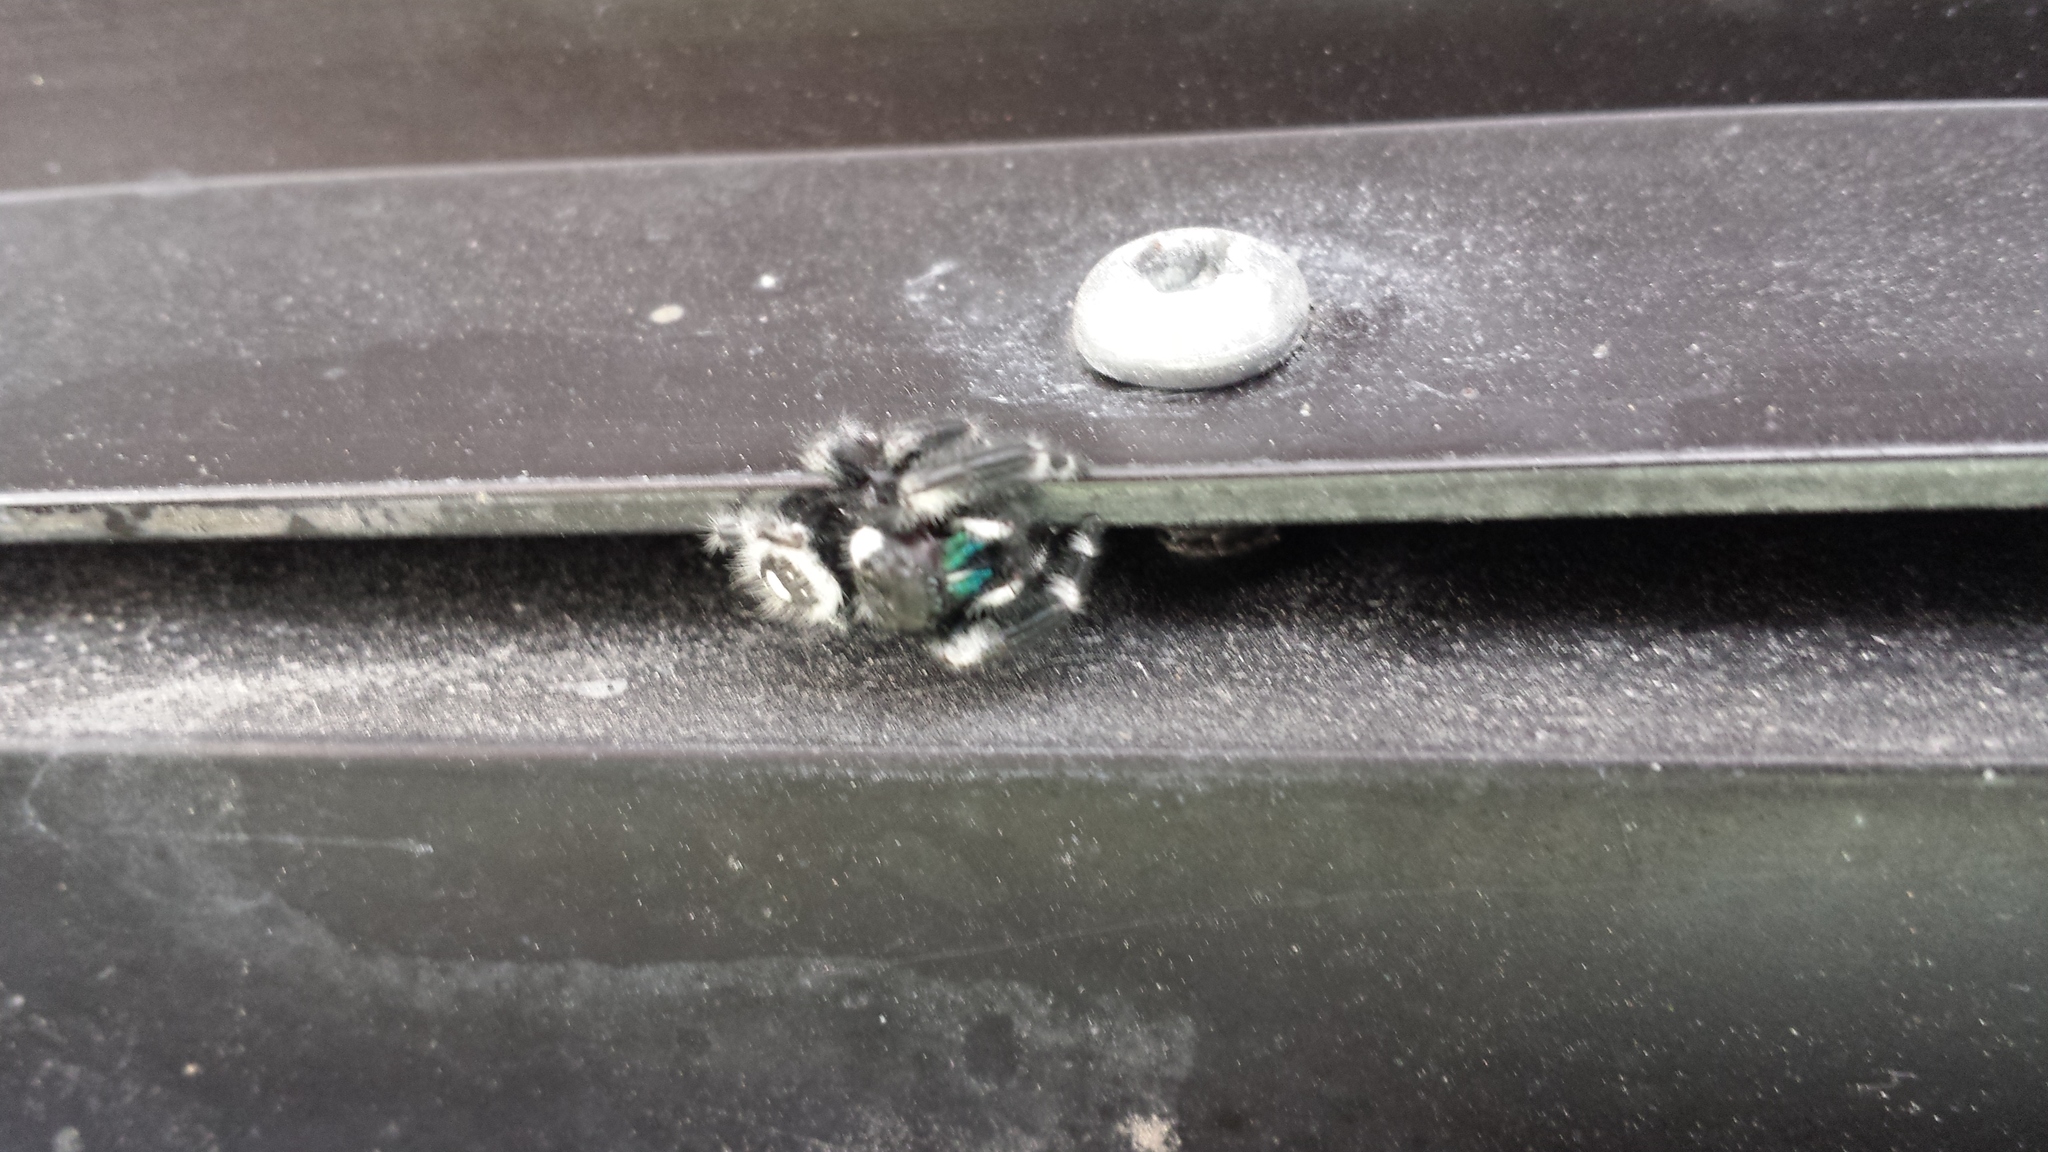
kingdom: Animalia
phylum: Arthropoda
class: Arachnida
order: Araneae
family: Salticidae
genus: Phidippus
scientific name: Phidippus audax
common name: Bold jumper
